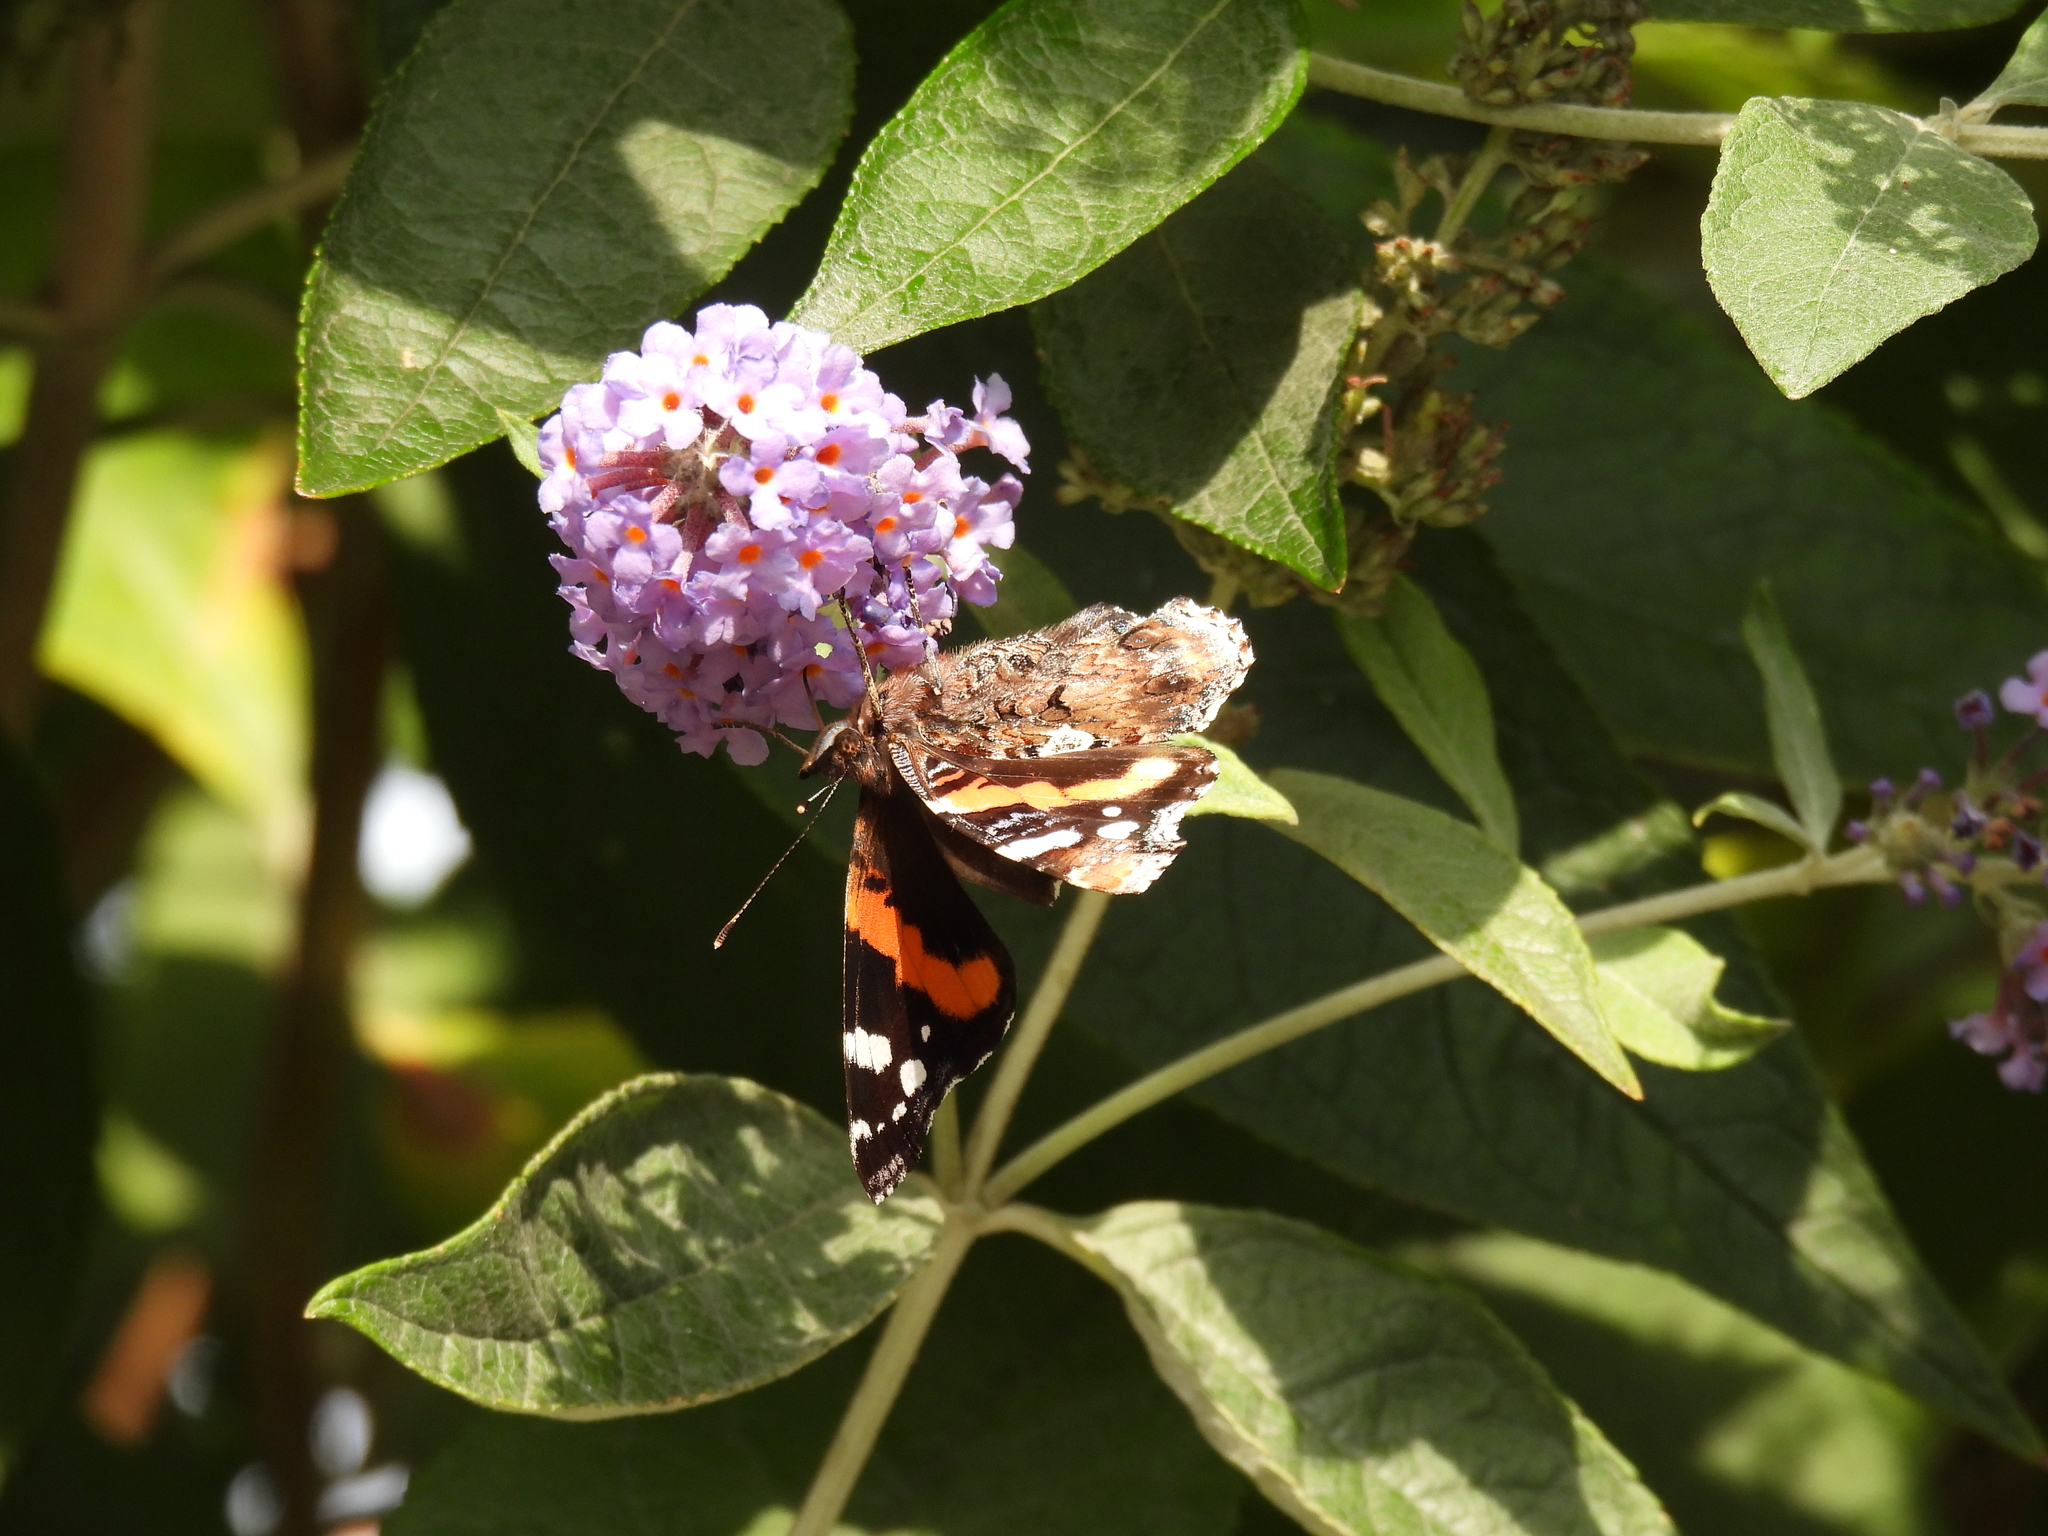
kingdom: Animalia
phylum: Arthropoda
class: Insecta
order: Lepidoptera
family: Nymphalidae
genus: Vanessa
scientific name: Vanessa atalanta
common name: Red admiral
